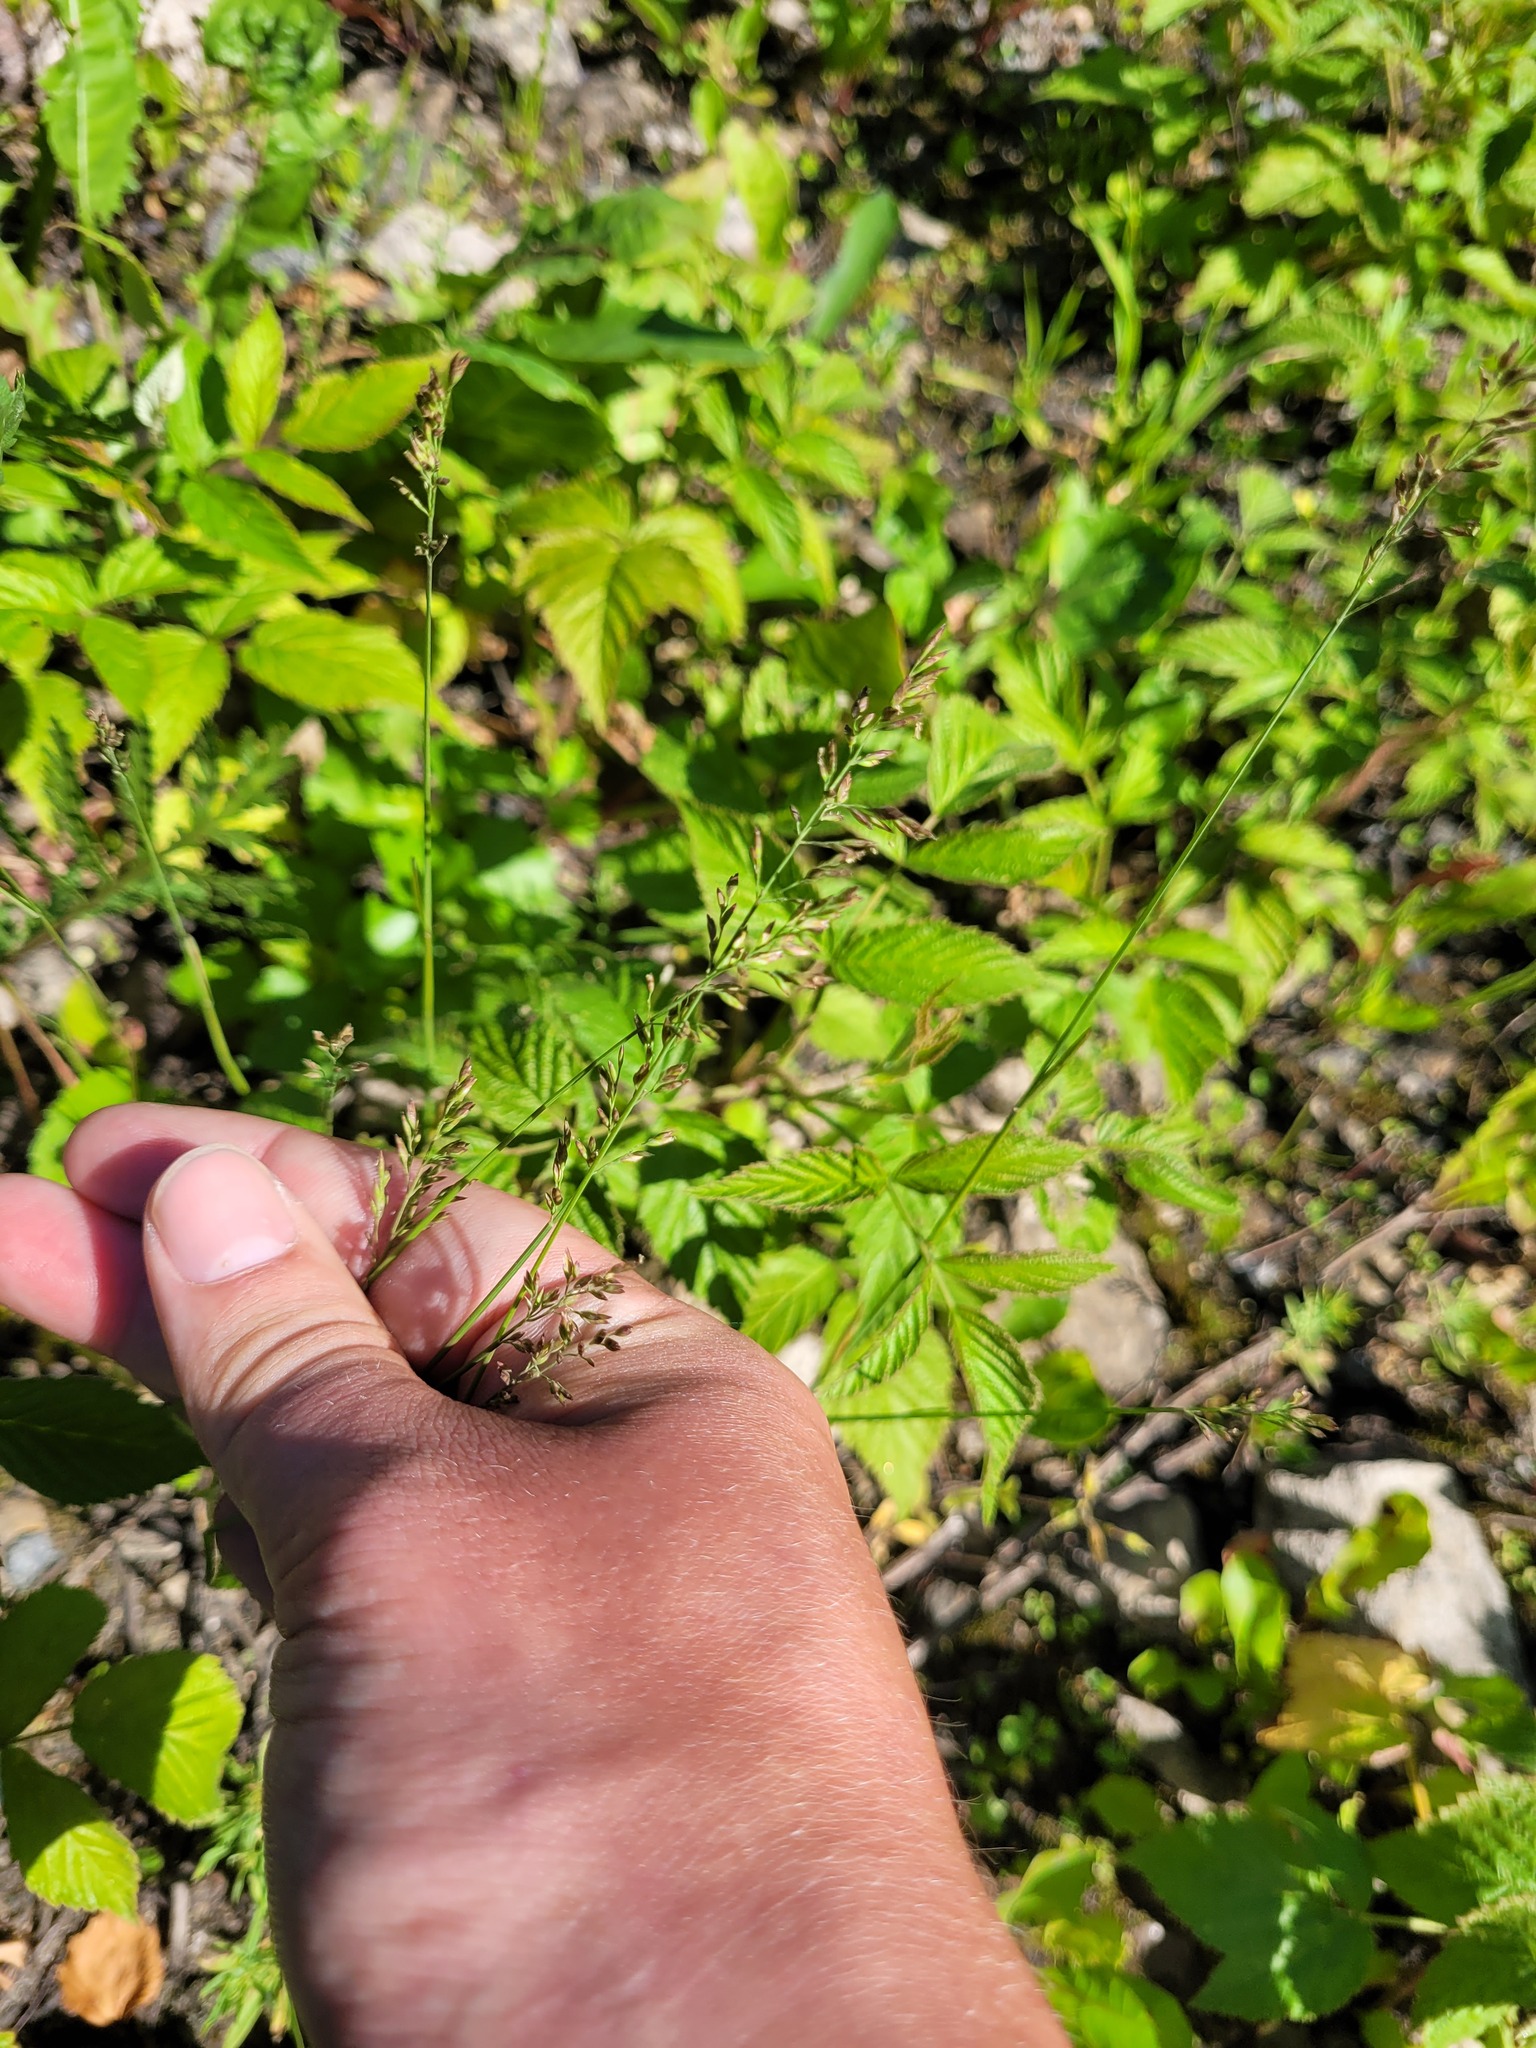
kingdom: Plantae
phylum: Tracheophyta
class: Liliopsida
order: Poales
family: Poaceae
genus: Poa
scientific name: Poa compressa
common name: Canada bluegrass
